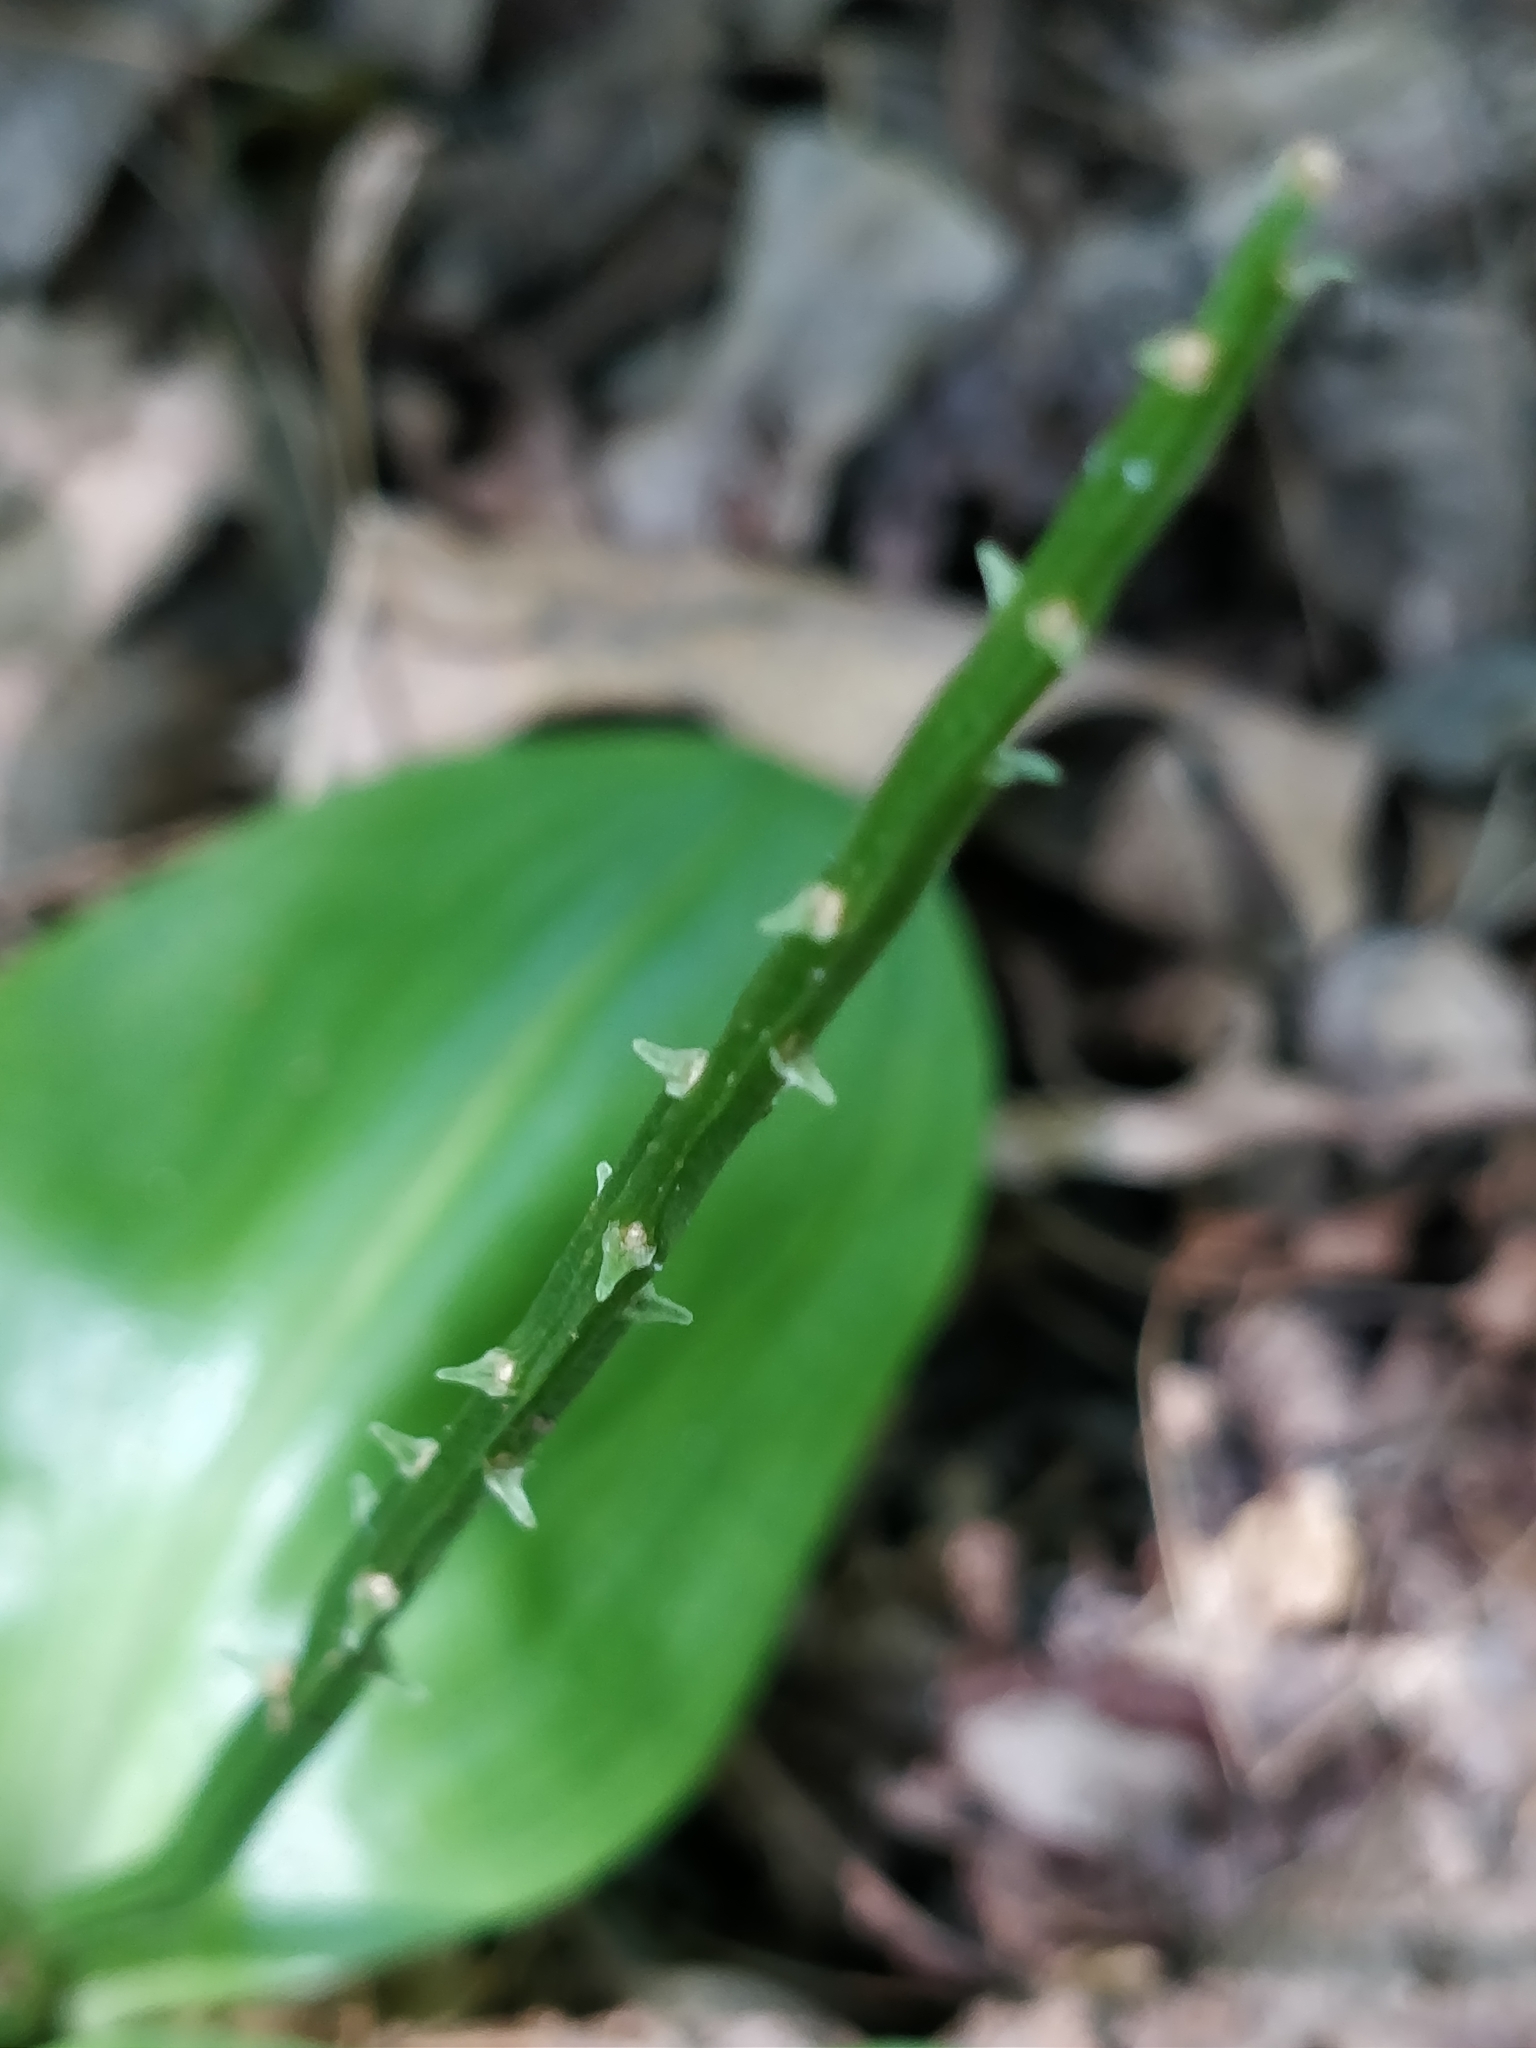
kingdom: Plantae
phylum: Tracheophyta
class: Liliopsida
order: Asparagales
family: Orchidaceae
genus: Galearis
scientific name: Galearis spectabilis
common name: Purple-hooded orchis
